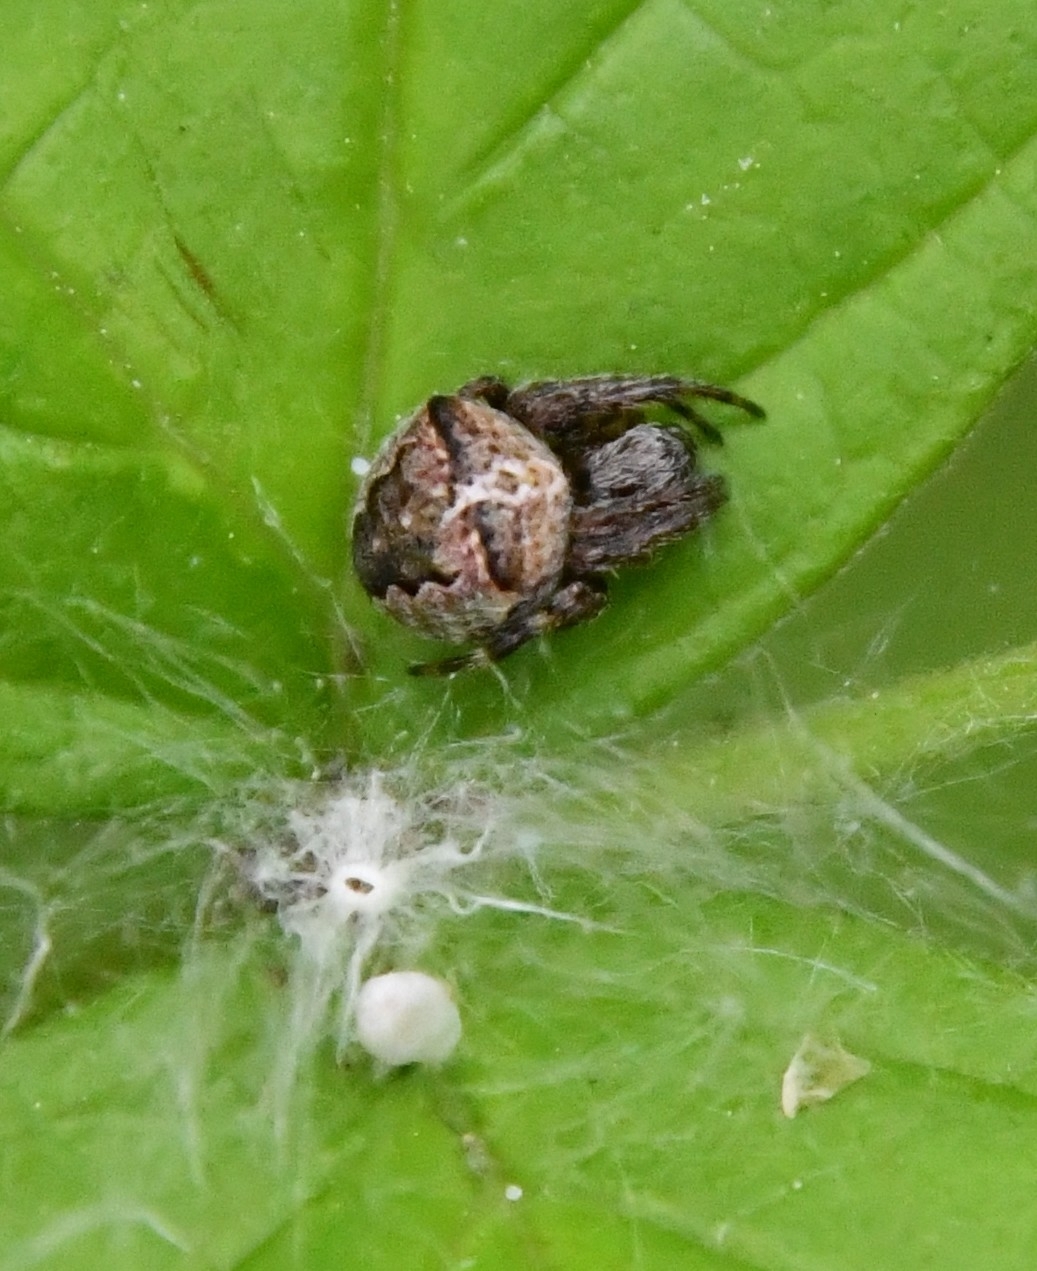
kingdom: Animalia
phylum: Arthropoda
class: Arachnida
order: Araneae
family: Araneidae
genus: Araneus
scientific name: Araneus angulatus
